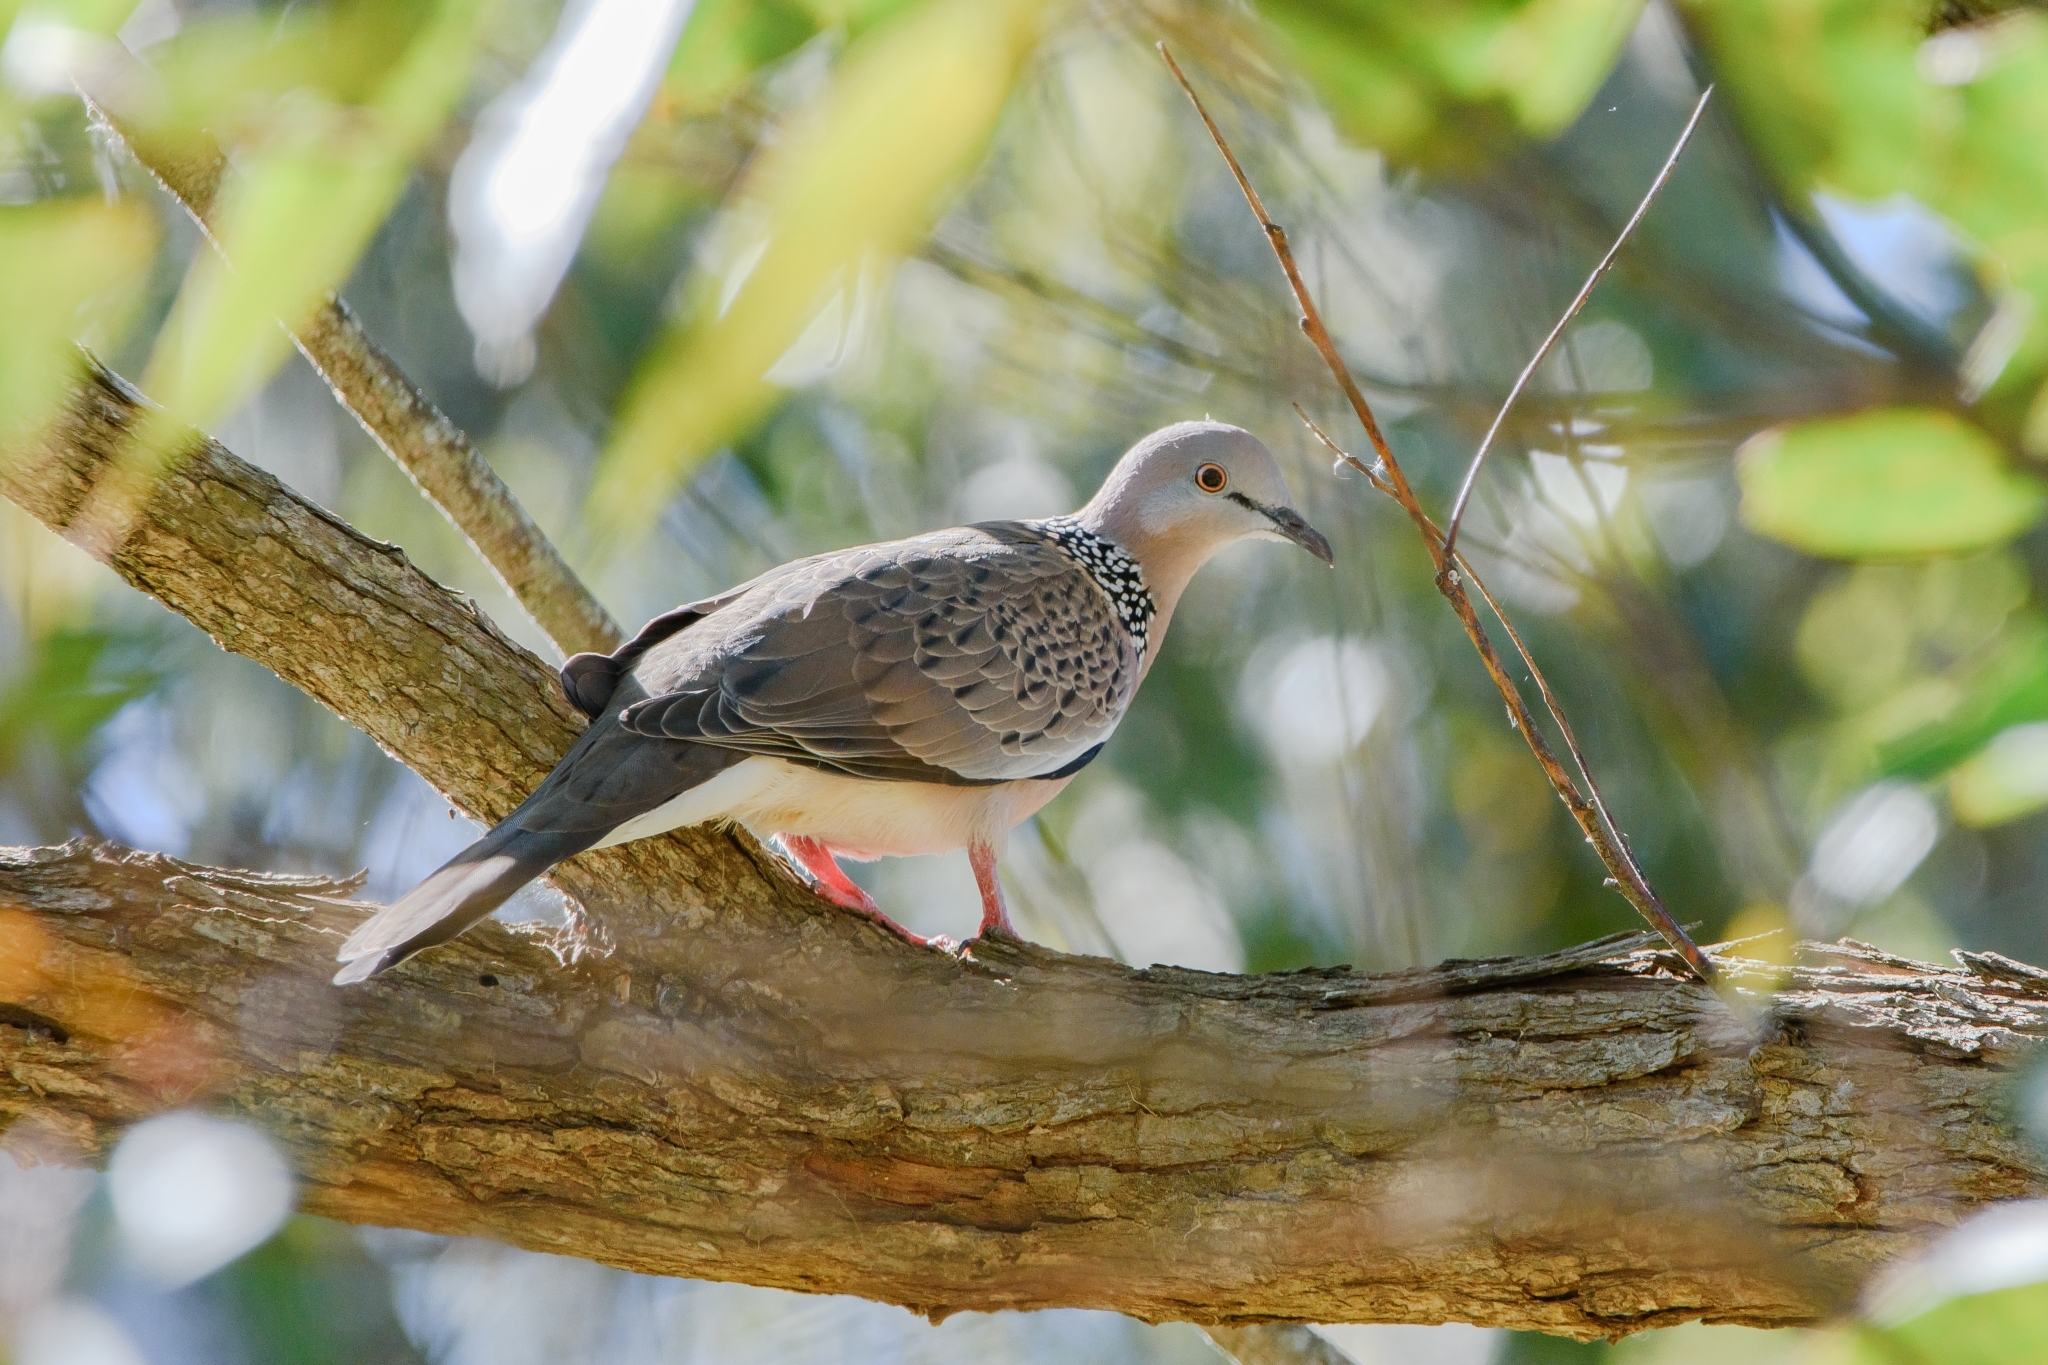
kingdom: Animalia
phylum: Chordata
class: Aves
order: Columbiformes
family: Columbidae
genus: Spilopelia
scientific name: Spilopelia chinensis
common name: Spotted dove
